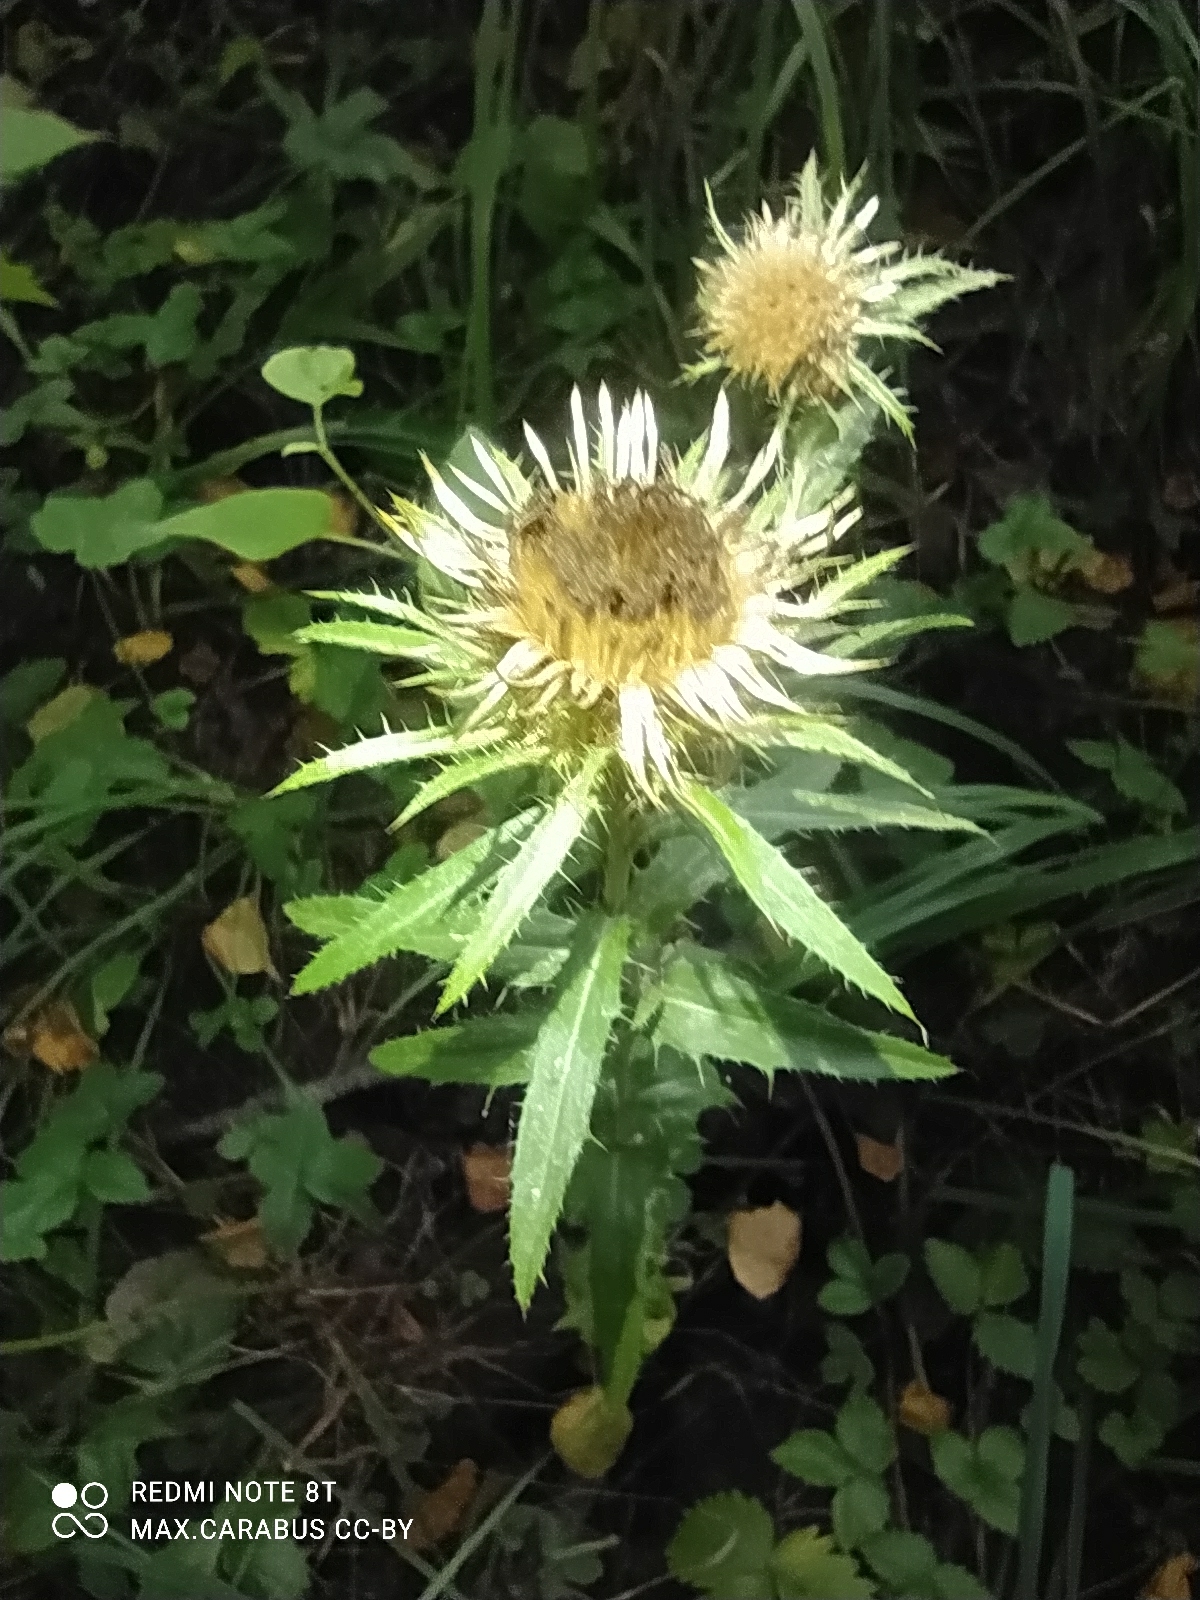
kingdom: Plantae
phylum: Tracheophyta
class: Magnoliopsida
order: Asterales
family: Asteraceae
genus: Carlina
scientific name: Carlina biebersteinii
